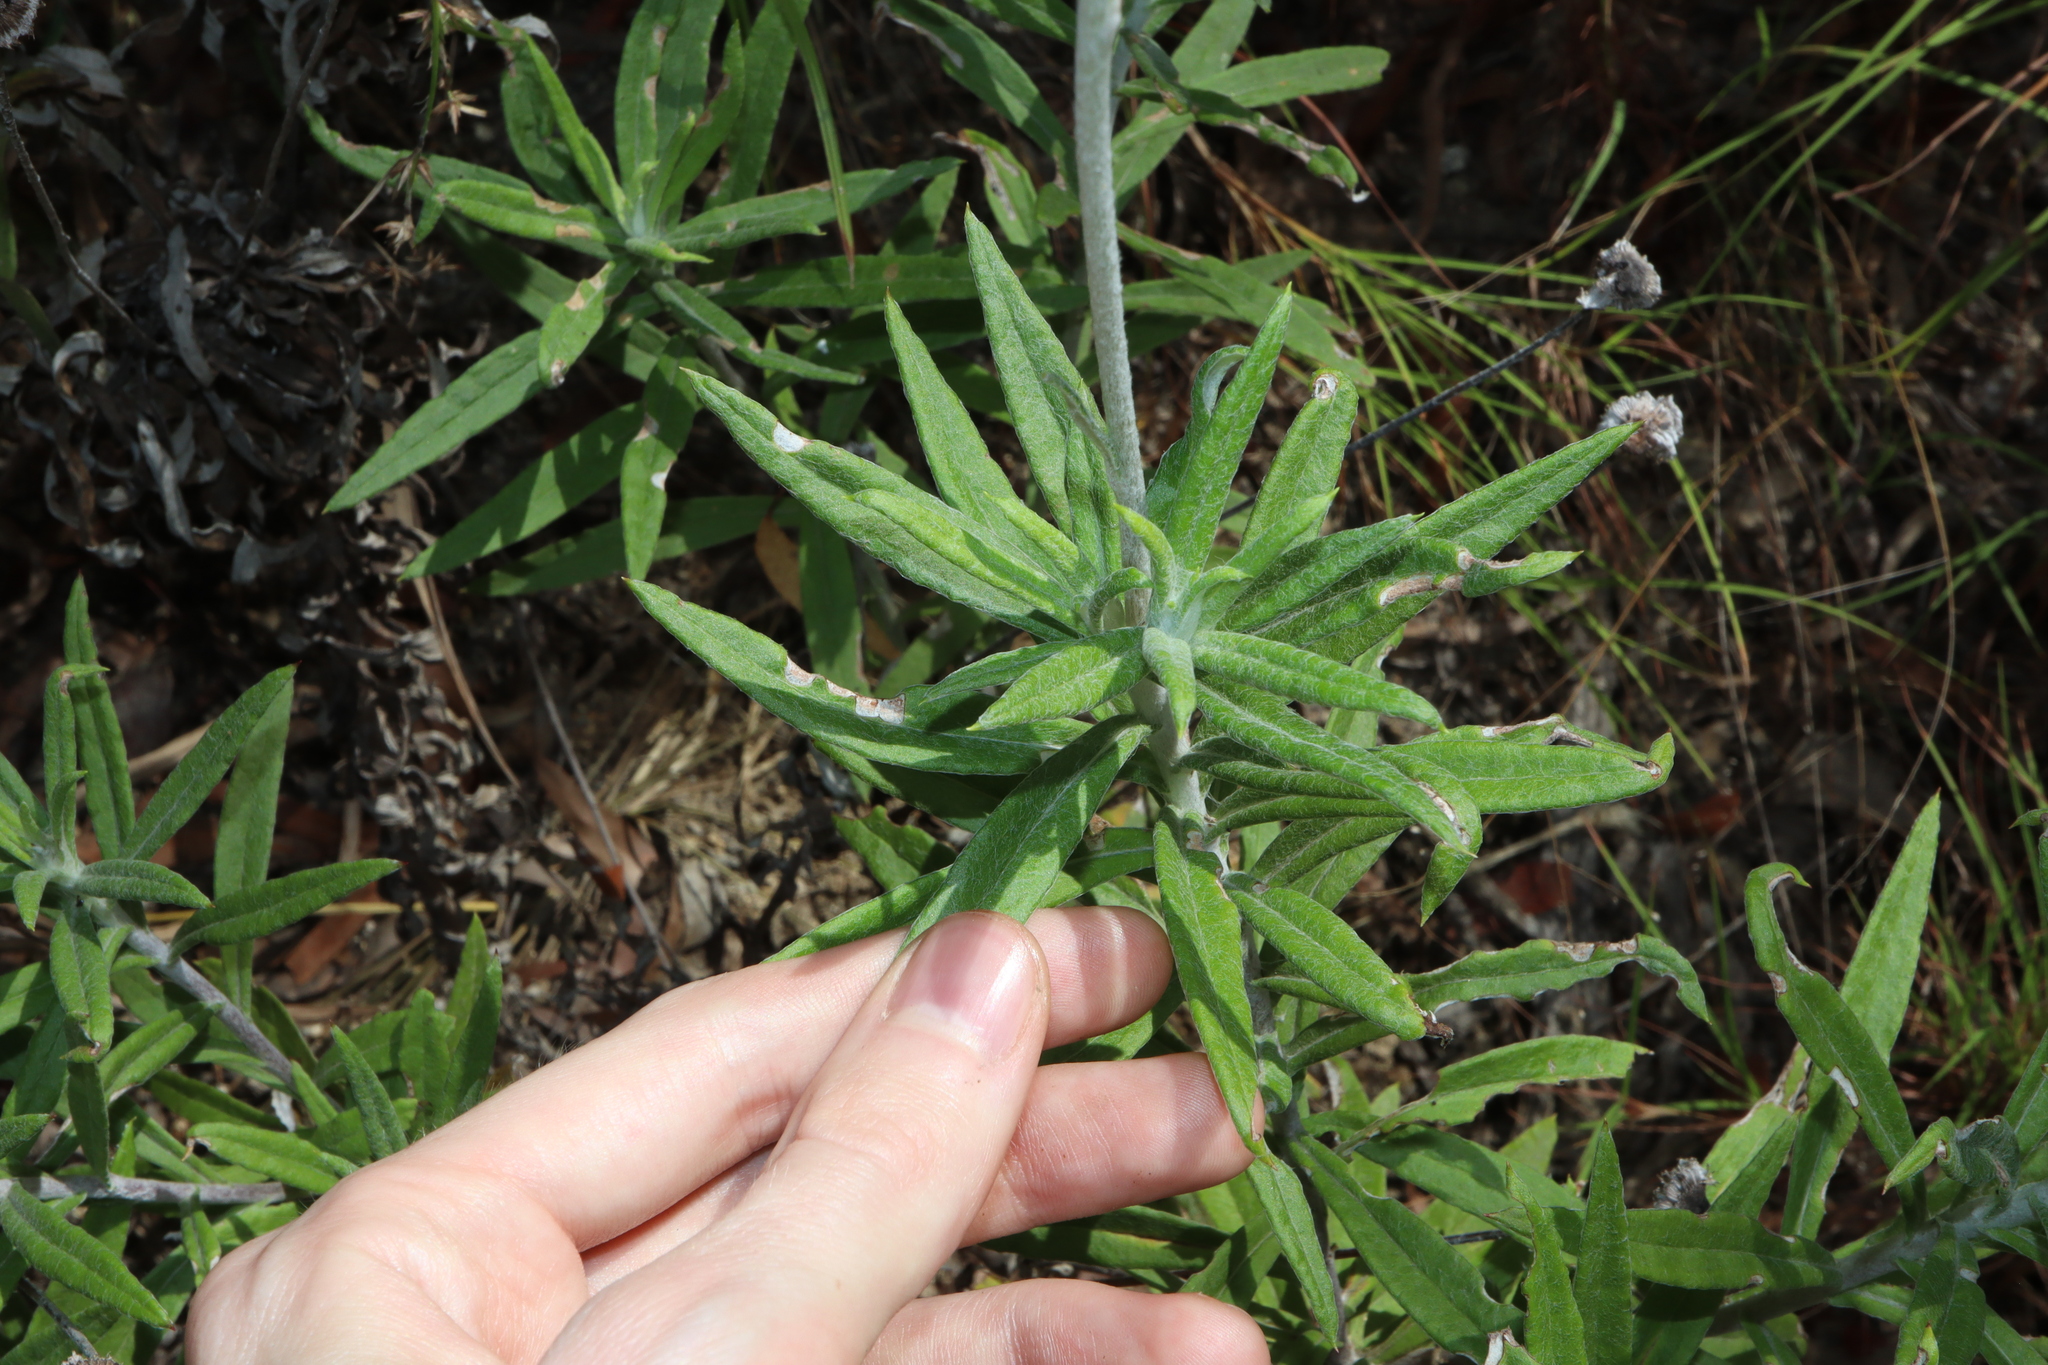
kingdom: Plantae
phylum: Tracheophyta
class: Magnoliopsida
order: Asterales
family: Asteraceae
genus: Coronidium
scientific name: Coronidium rupicola
